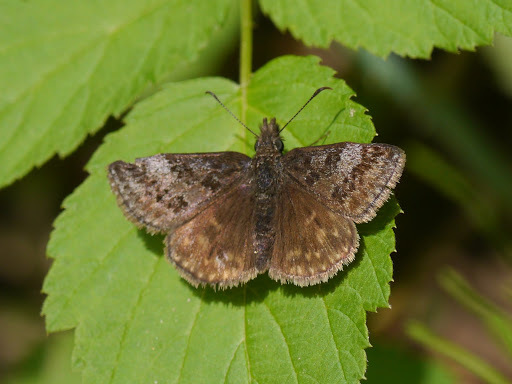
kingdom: Animalia
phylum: Arthropoda
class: Insecta
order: Lepidoptera
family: Hesperiidae
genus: Erynnis
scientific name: Erynnis icelus
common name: Dreamy duskywing
